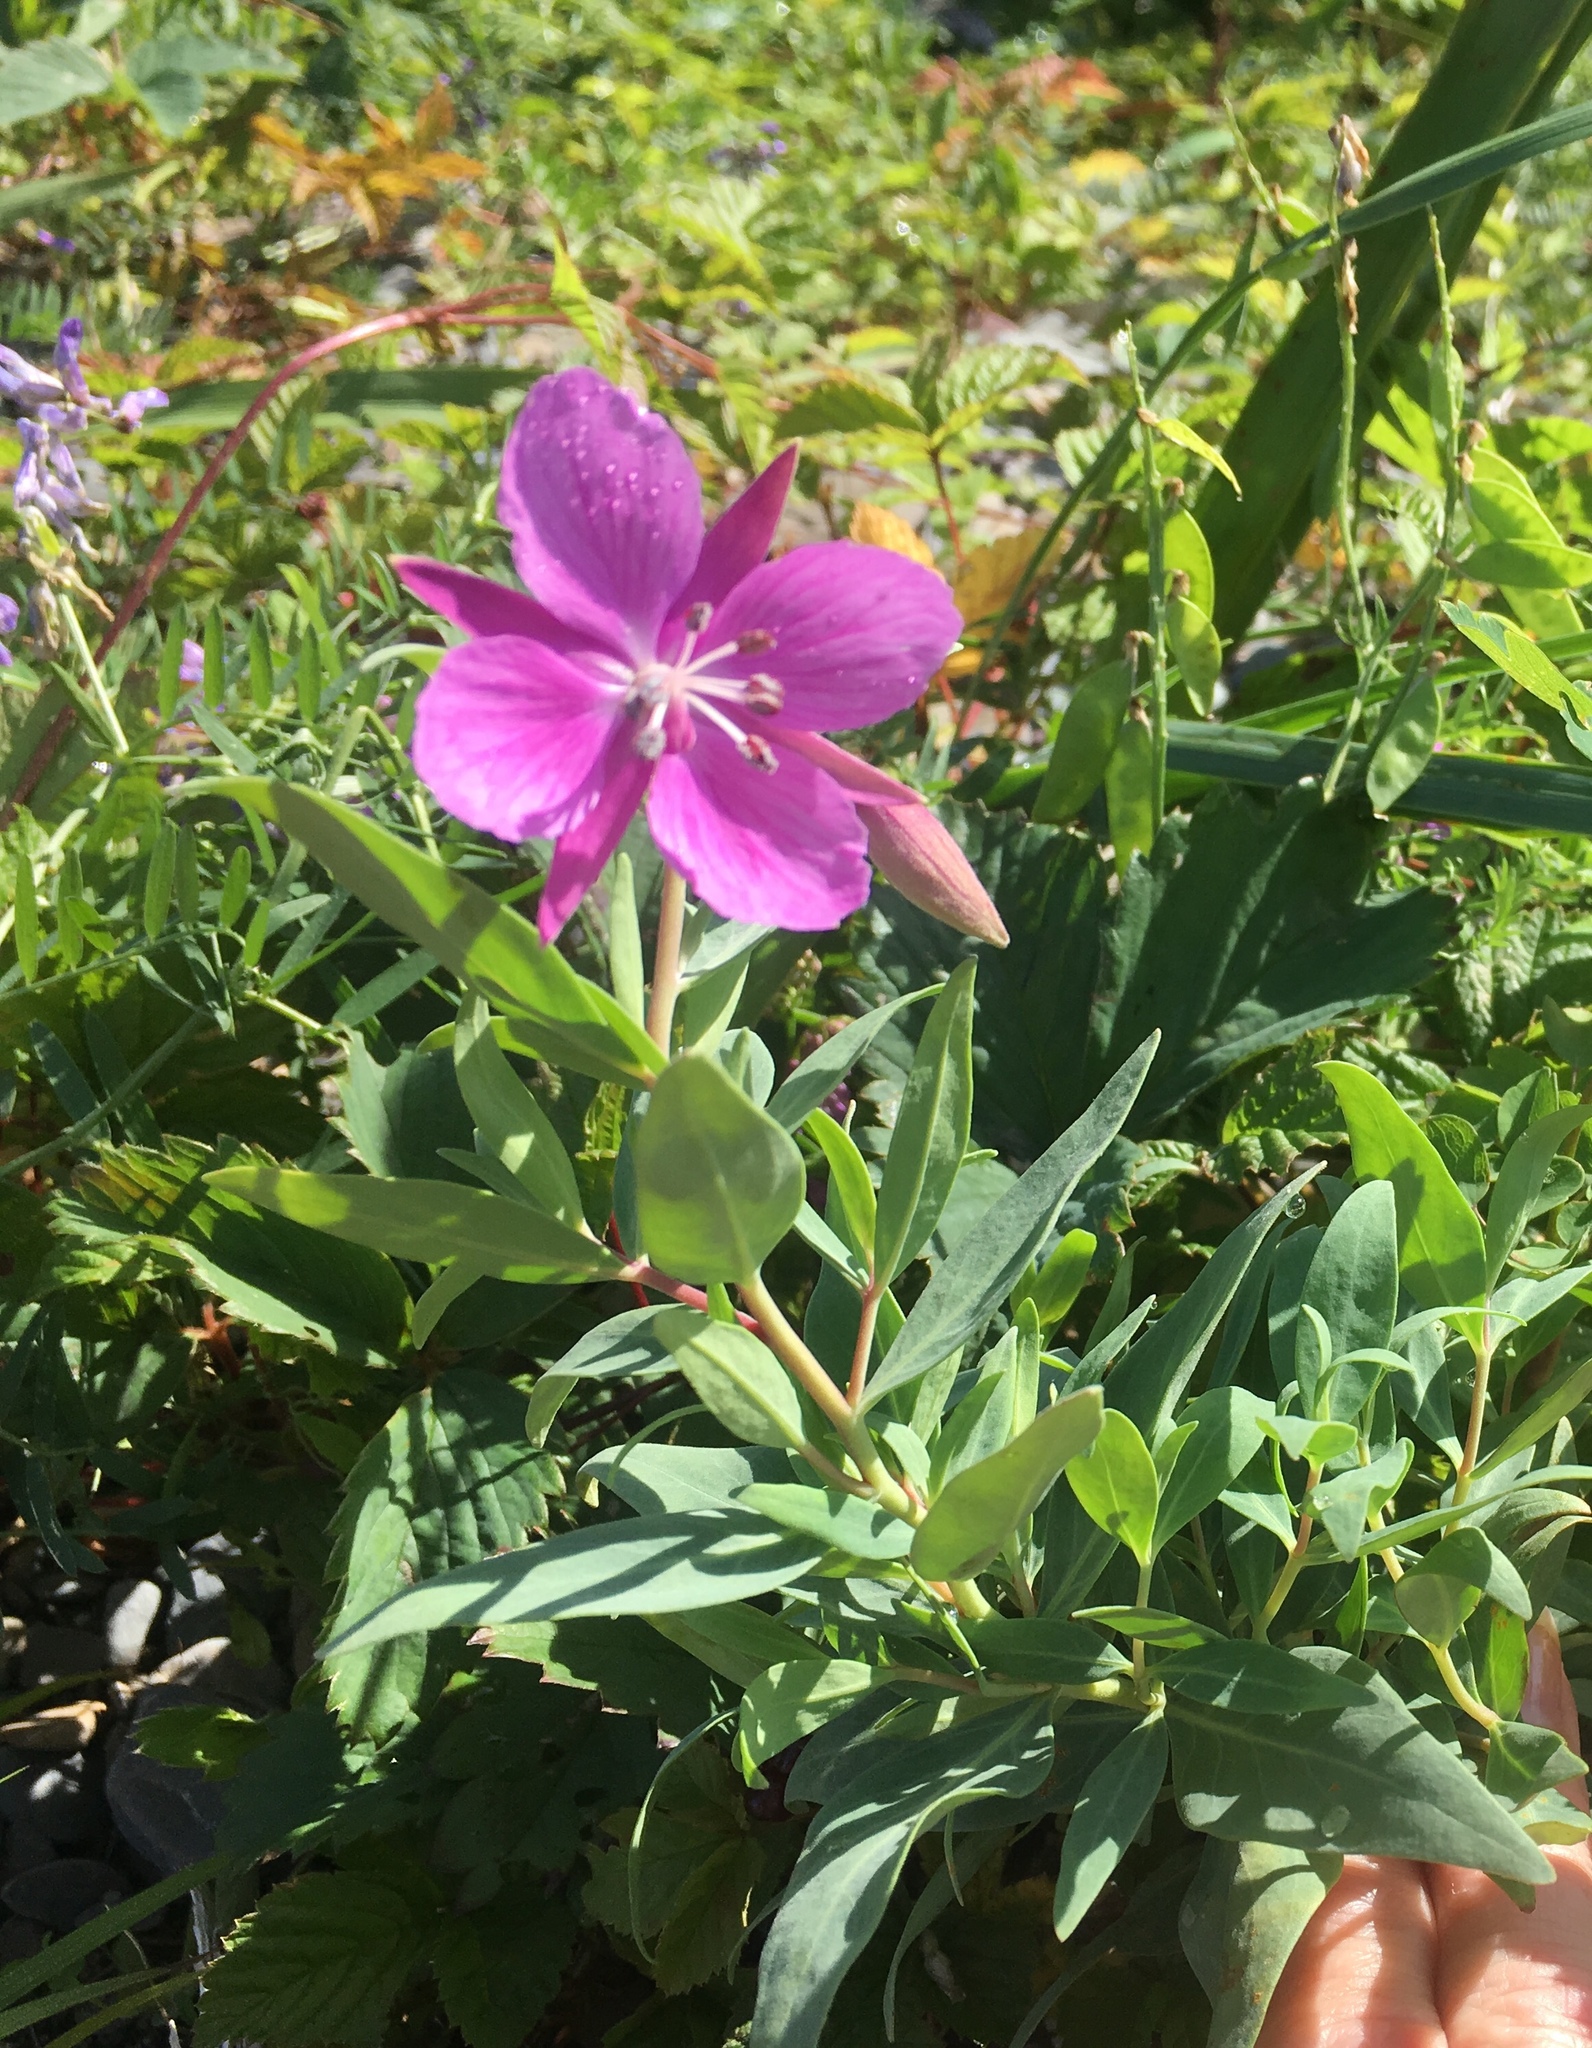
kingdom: Plantae
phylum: Tracheophyta
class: Magnoliopsida
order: Myrtales
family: Onagraceae
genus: Chamaenerion
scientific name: Chamaenerion latifolium
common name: Dwarf fireweed
